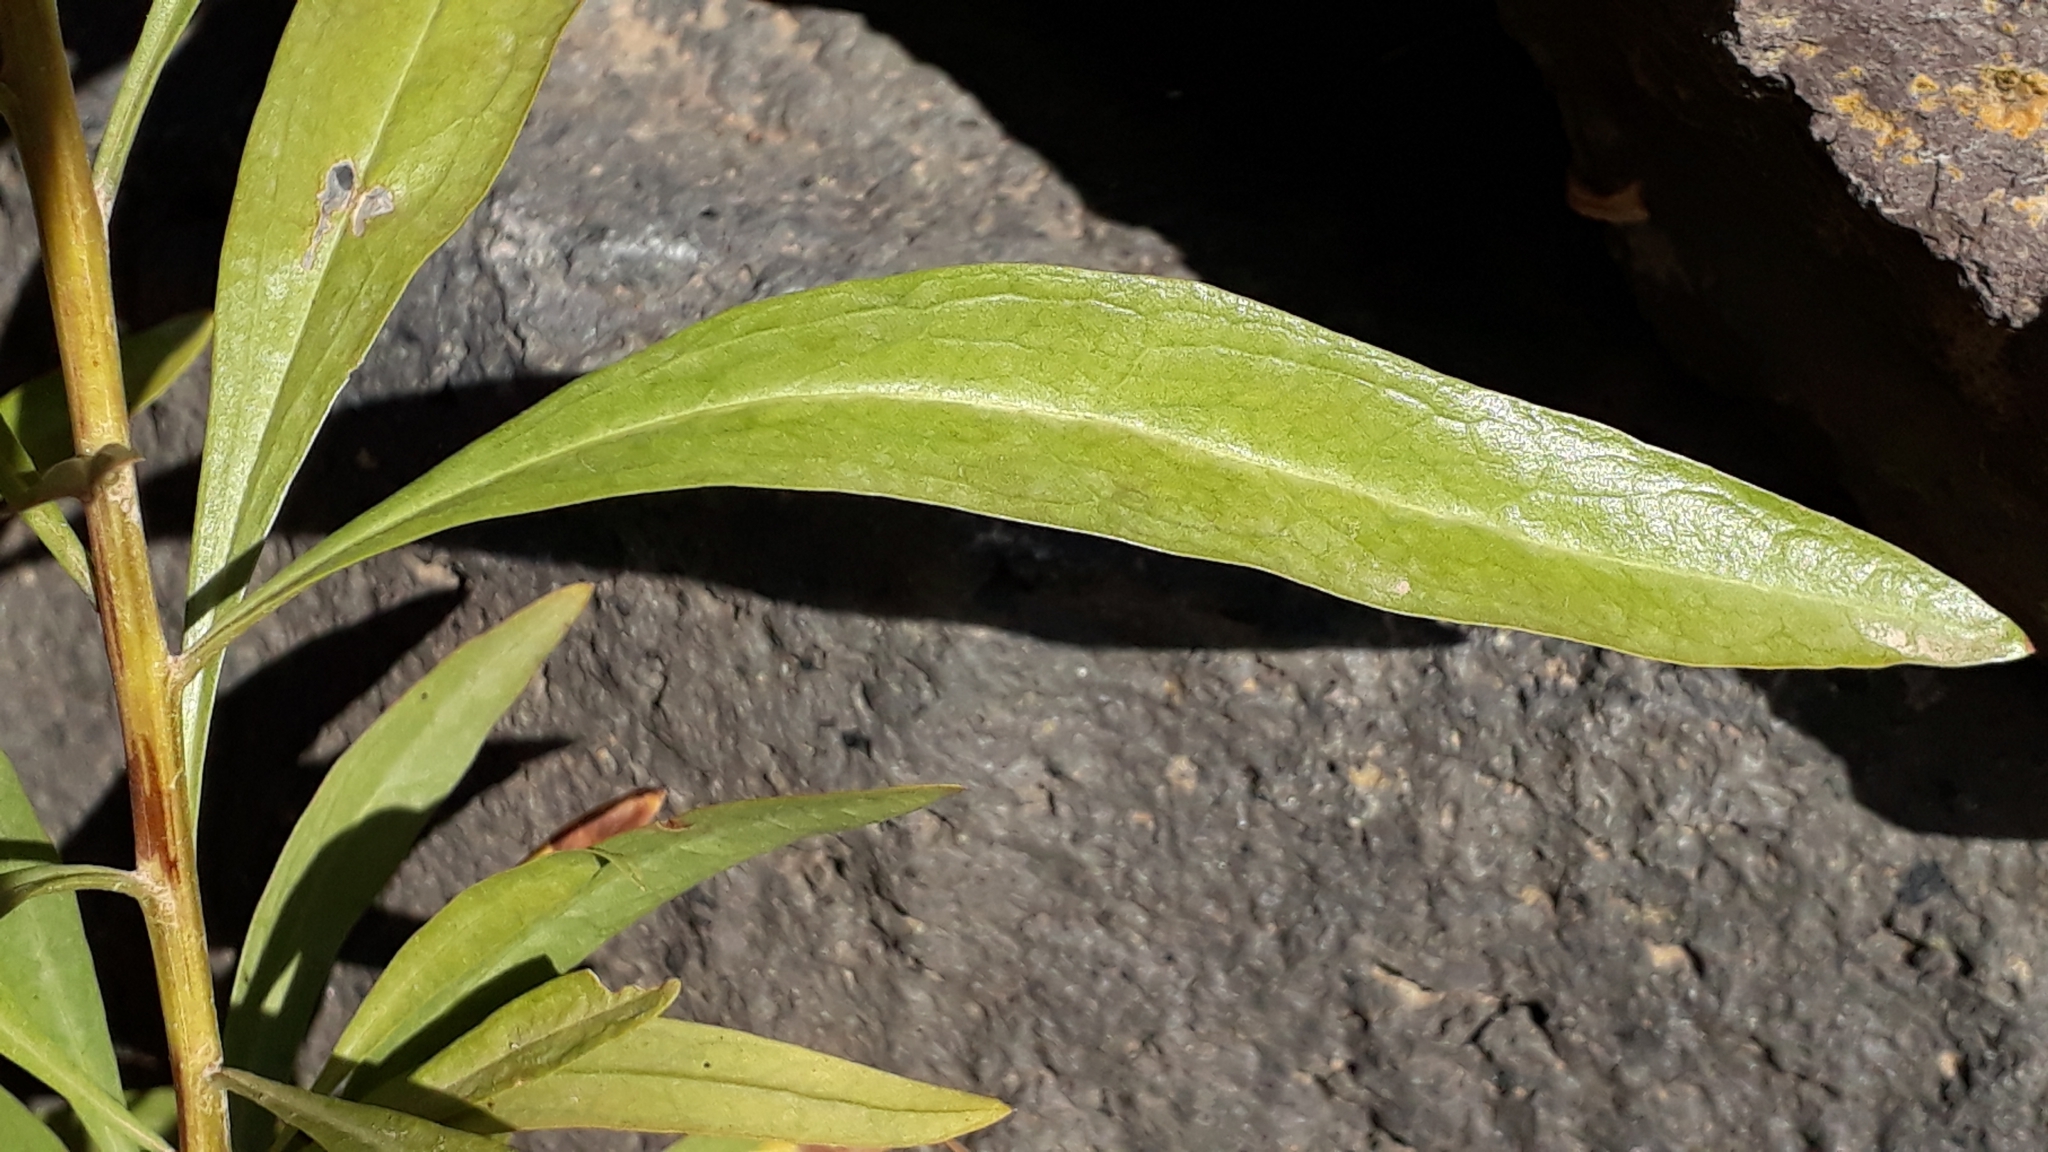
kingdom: Plantae
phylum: Tracheophyta
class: Magnoliopsida
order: Lamiales
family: Plantaginaceae
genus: Globularia
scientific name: Globularia salicina
